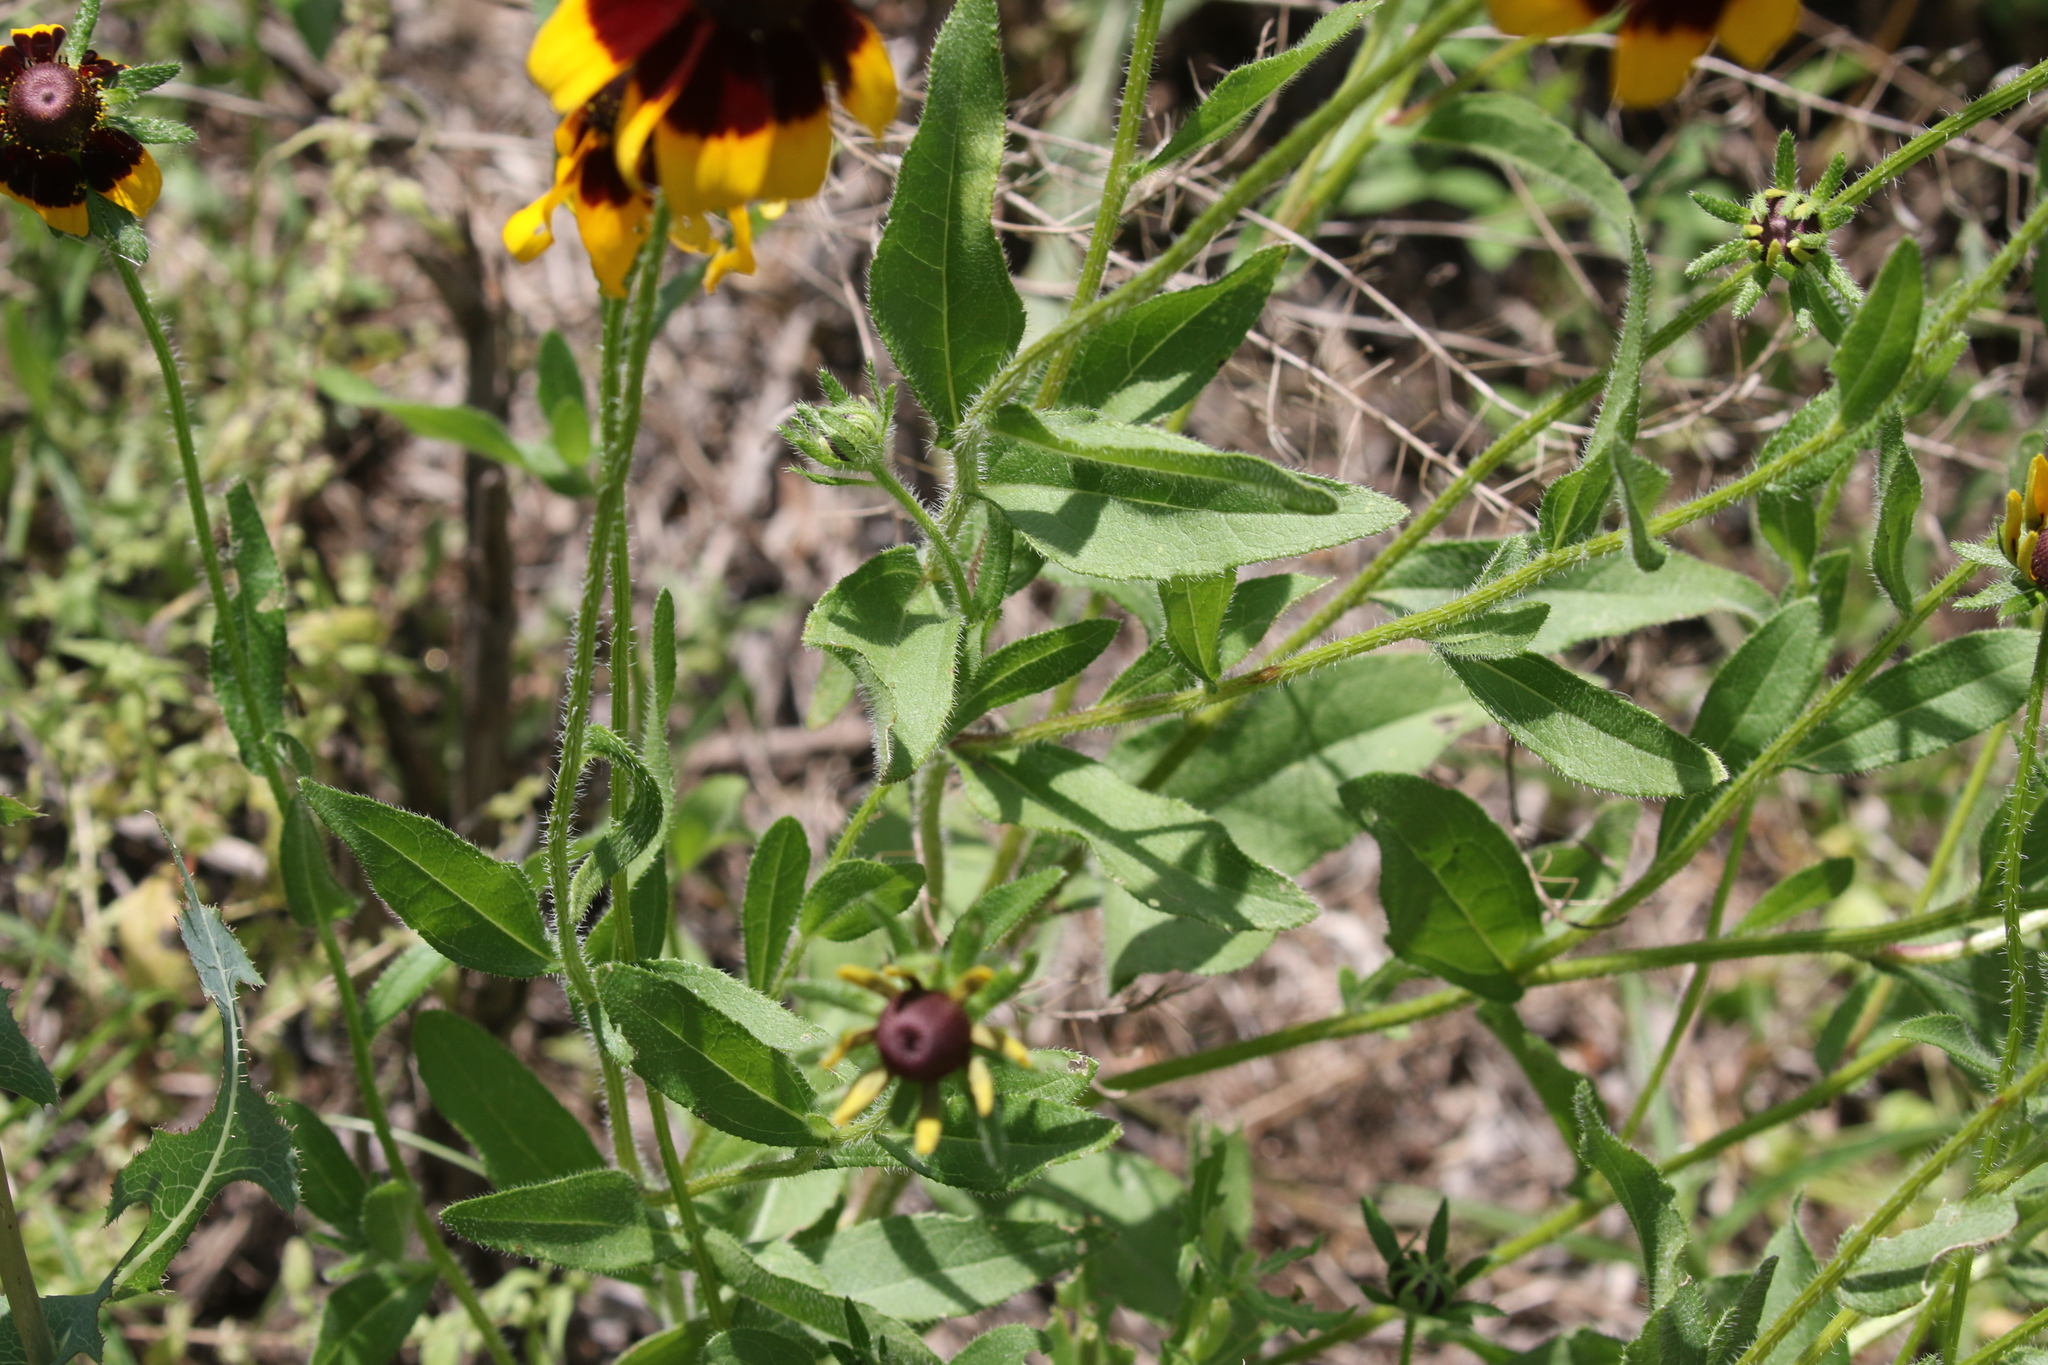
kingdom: Plantae
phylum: Tracheophyta
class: Magnoliopsida
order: Asterales
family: Asteraceae
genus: Rudbeckia
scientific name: Rudbeckia hirta
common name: Black-eyed-susan
